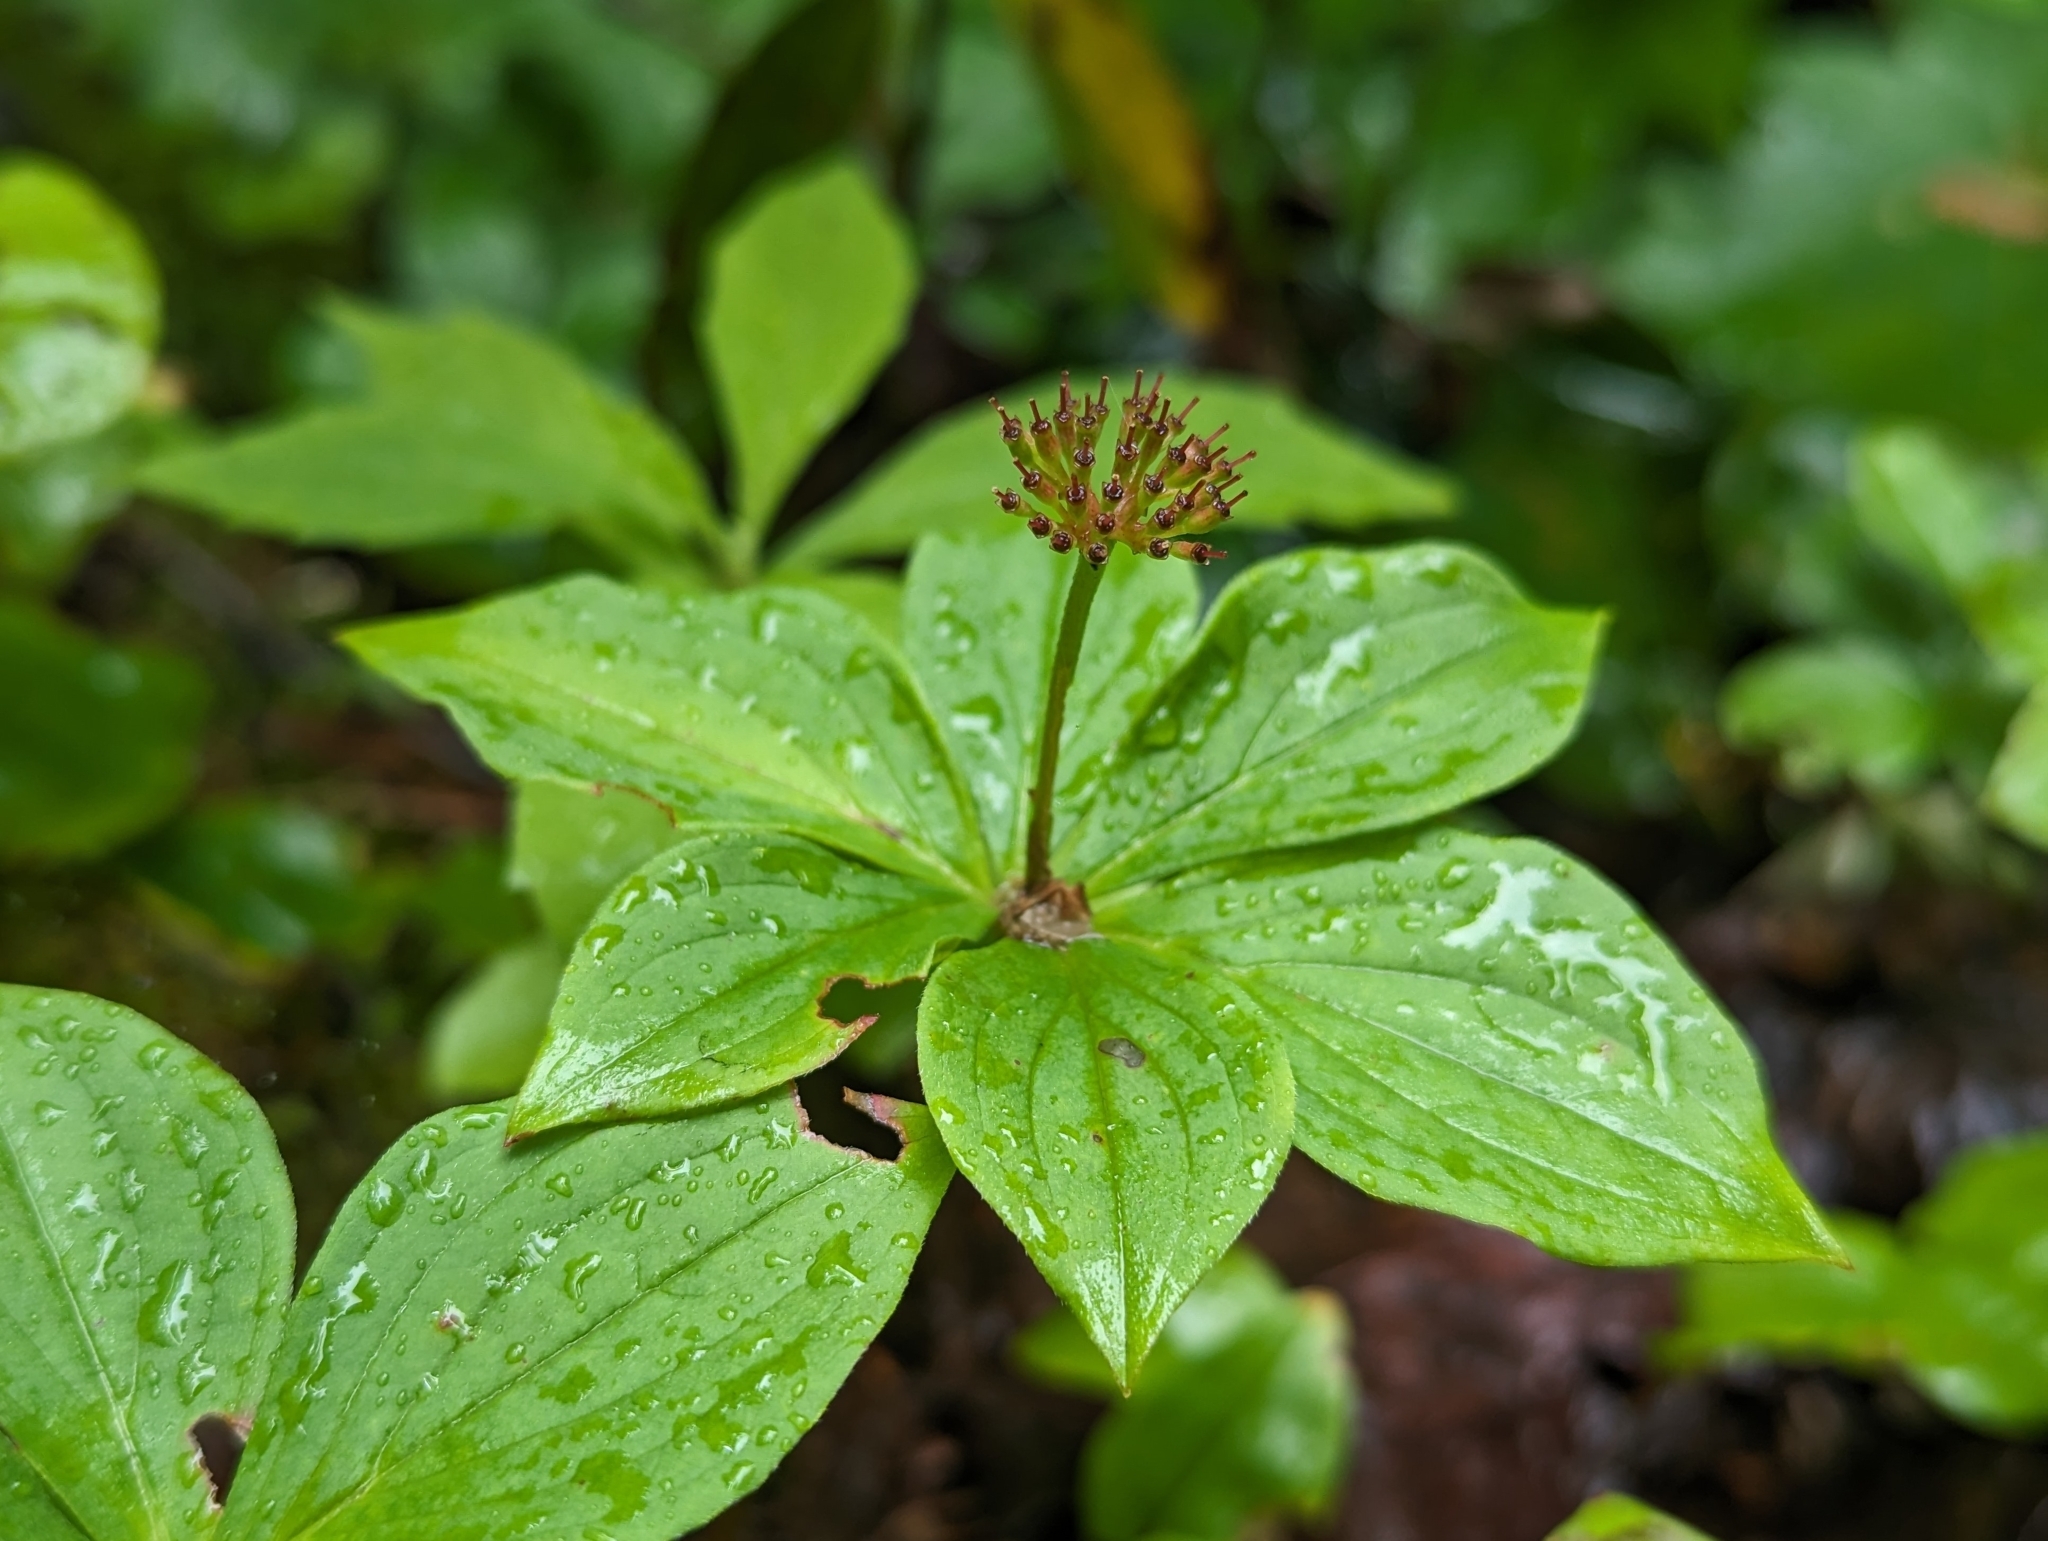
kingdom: Plantae
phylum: Tracheophyta
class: Magnoliopsida
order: Cornales
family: Cornaceae
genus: Cornus
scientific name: Cornus canadensis
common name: Creeping dogwood
